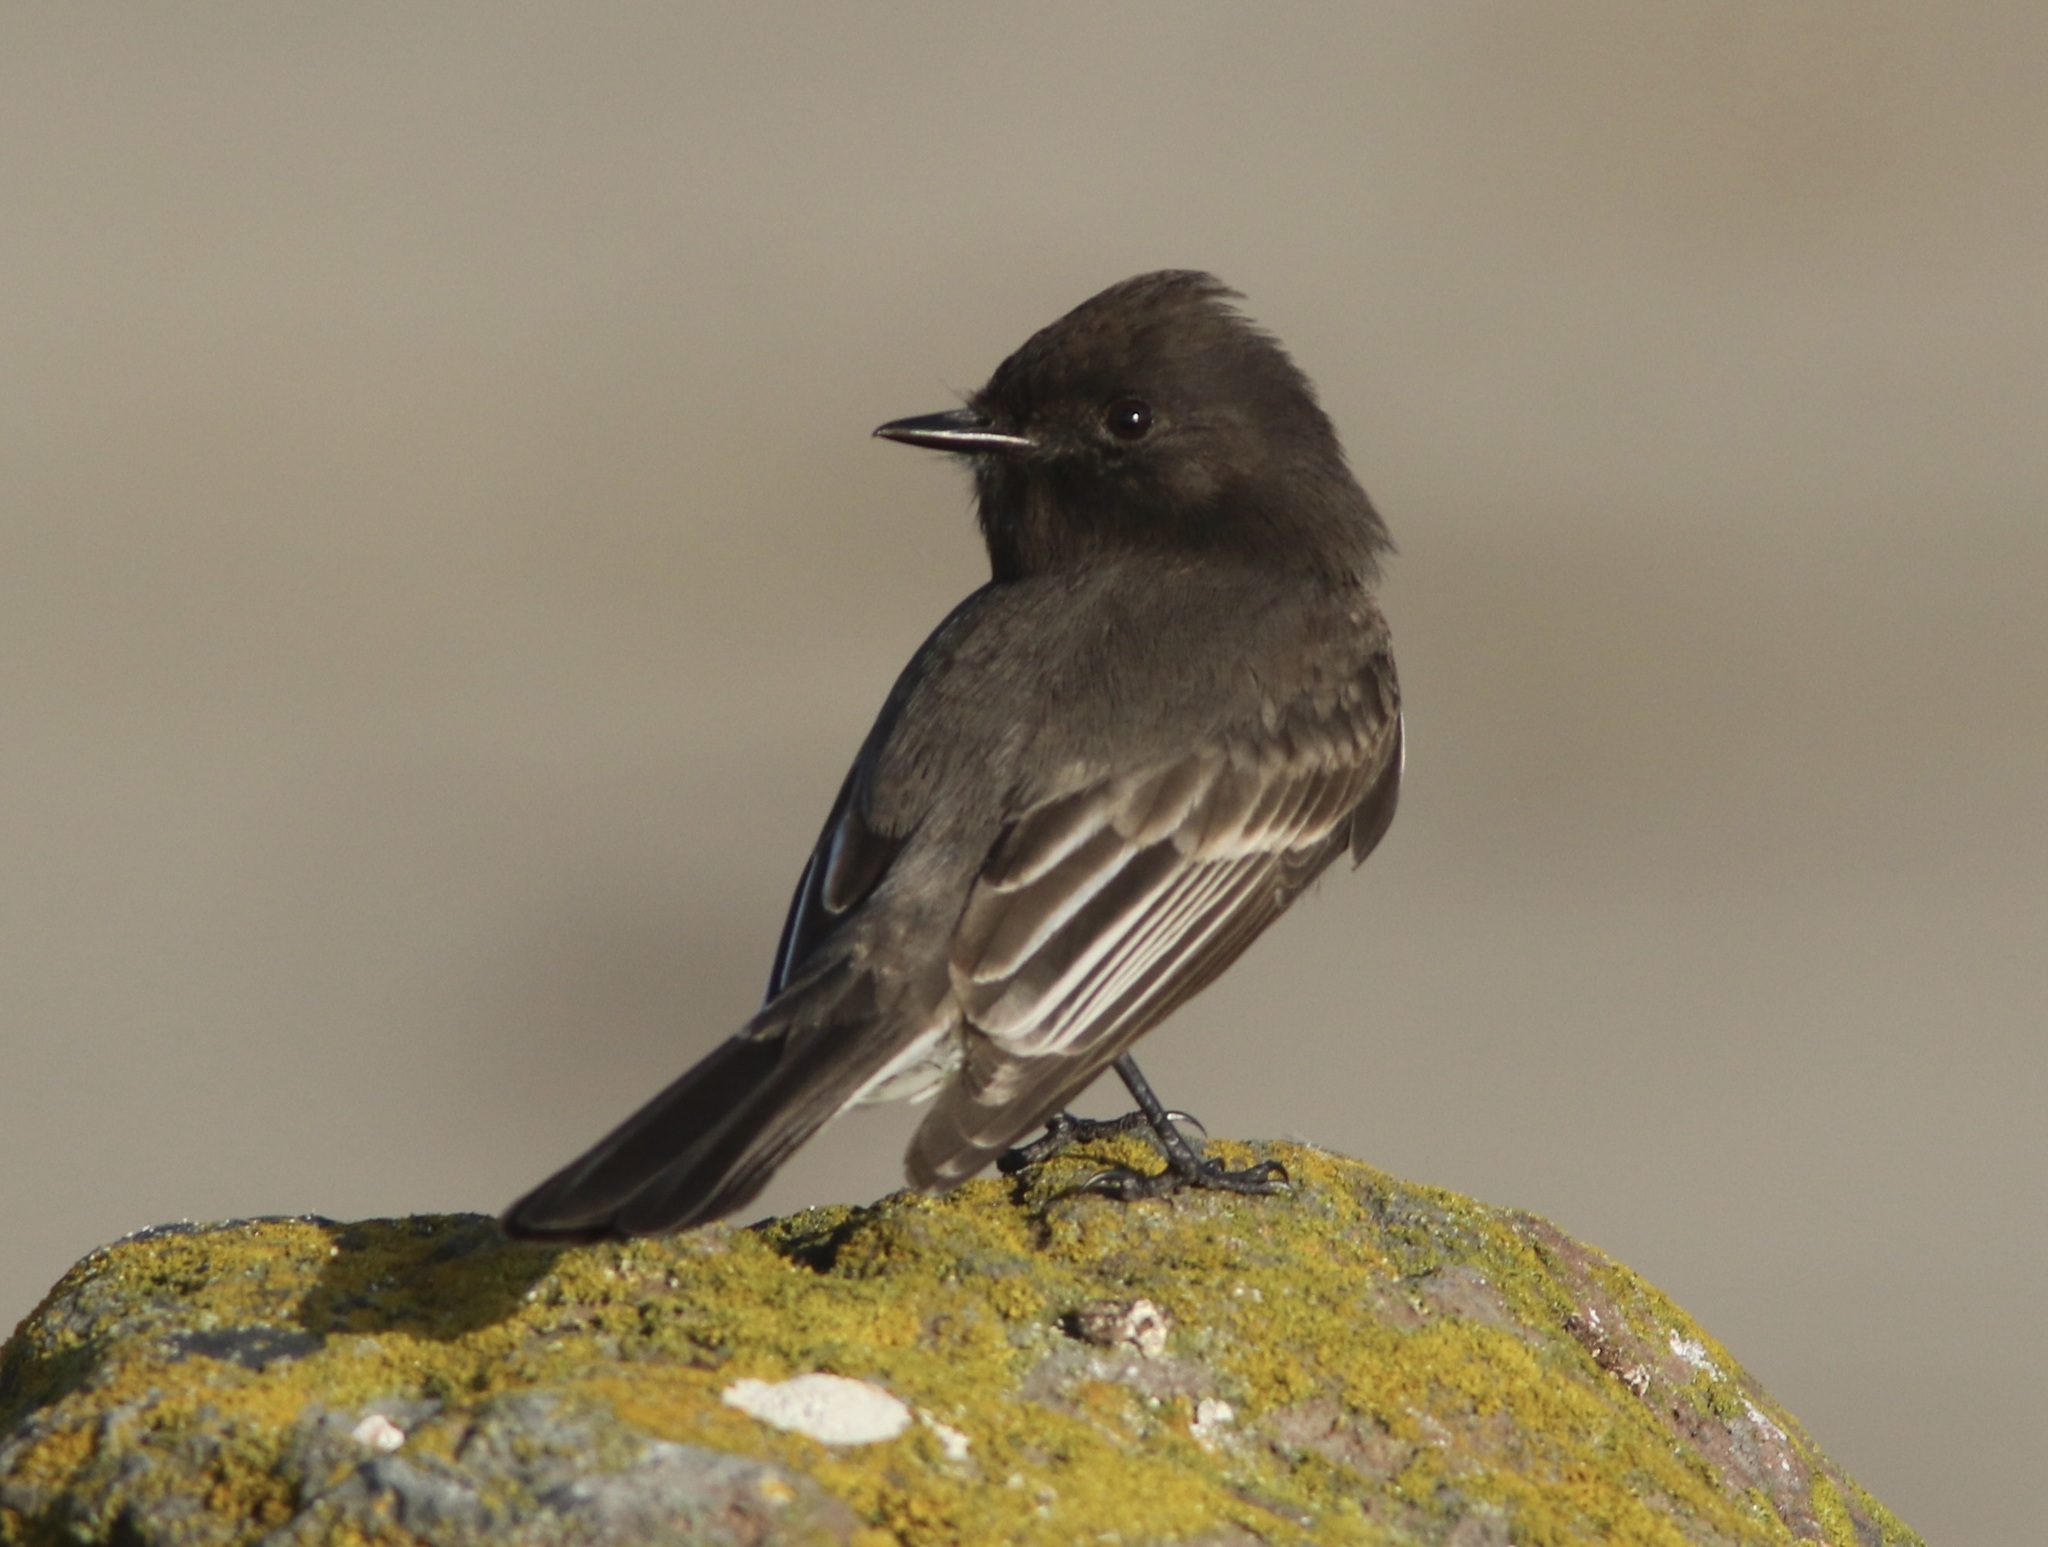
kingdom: Animalia
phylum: Chordata
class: Aves
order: Passeriformes
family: Tyrannidae
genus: Sayornis
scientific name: Sayornis nigricans
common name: Black phoebe
